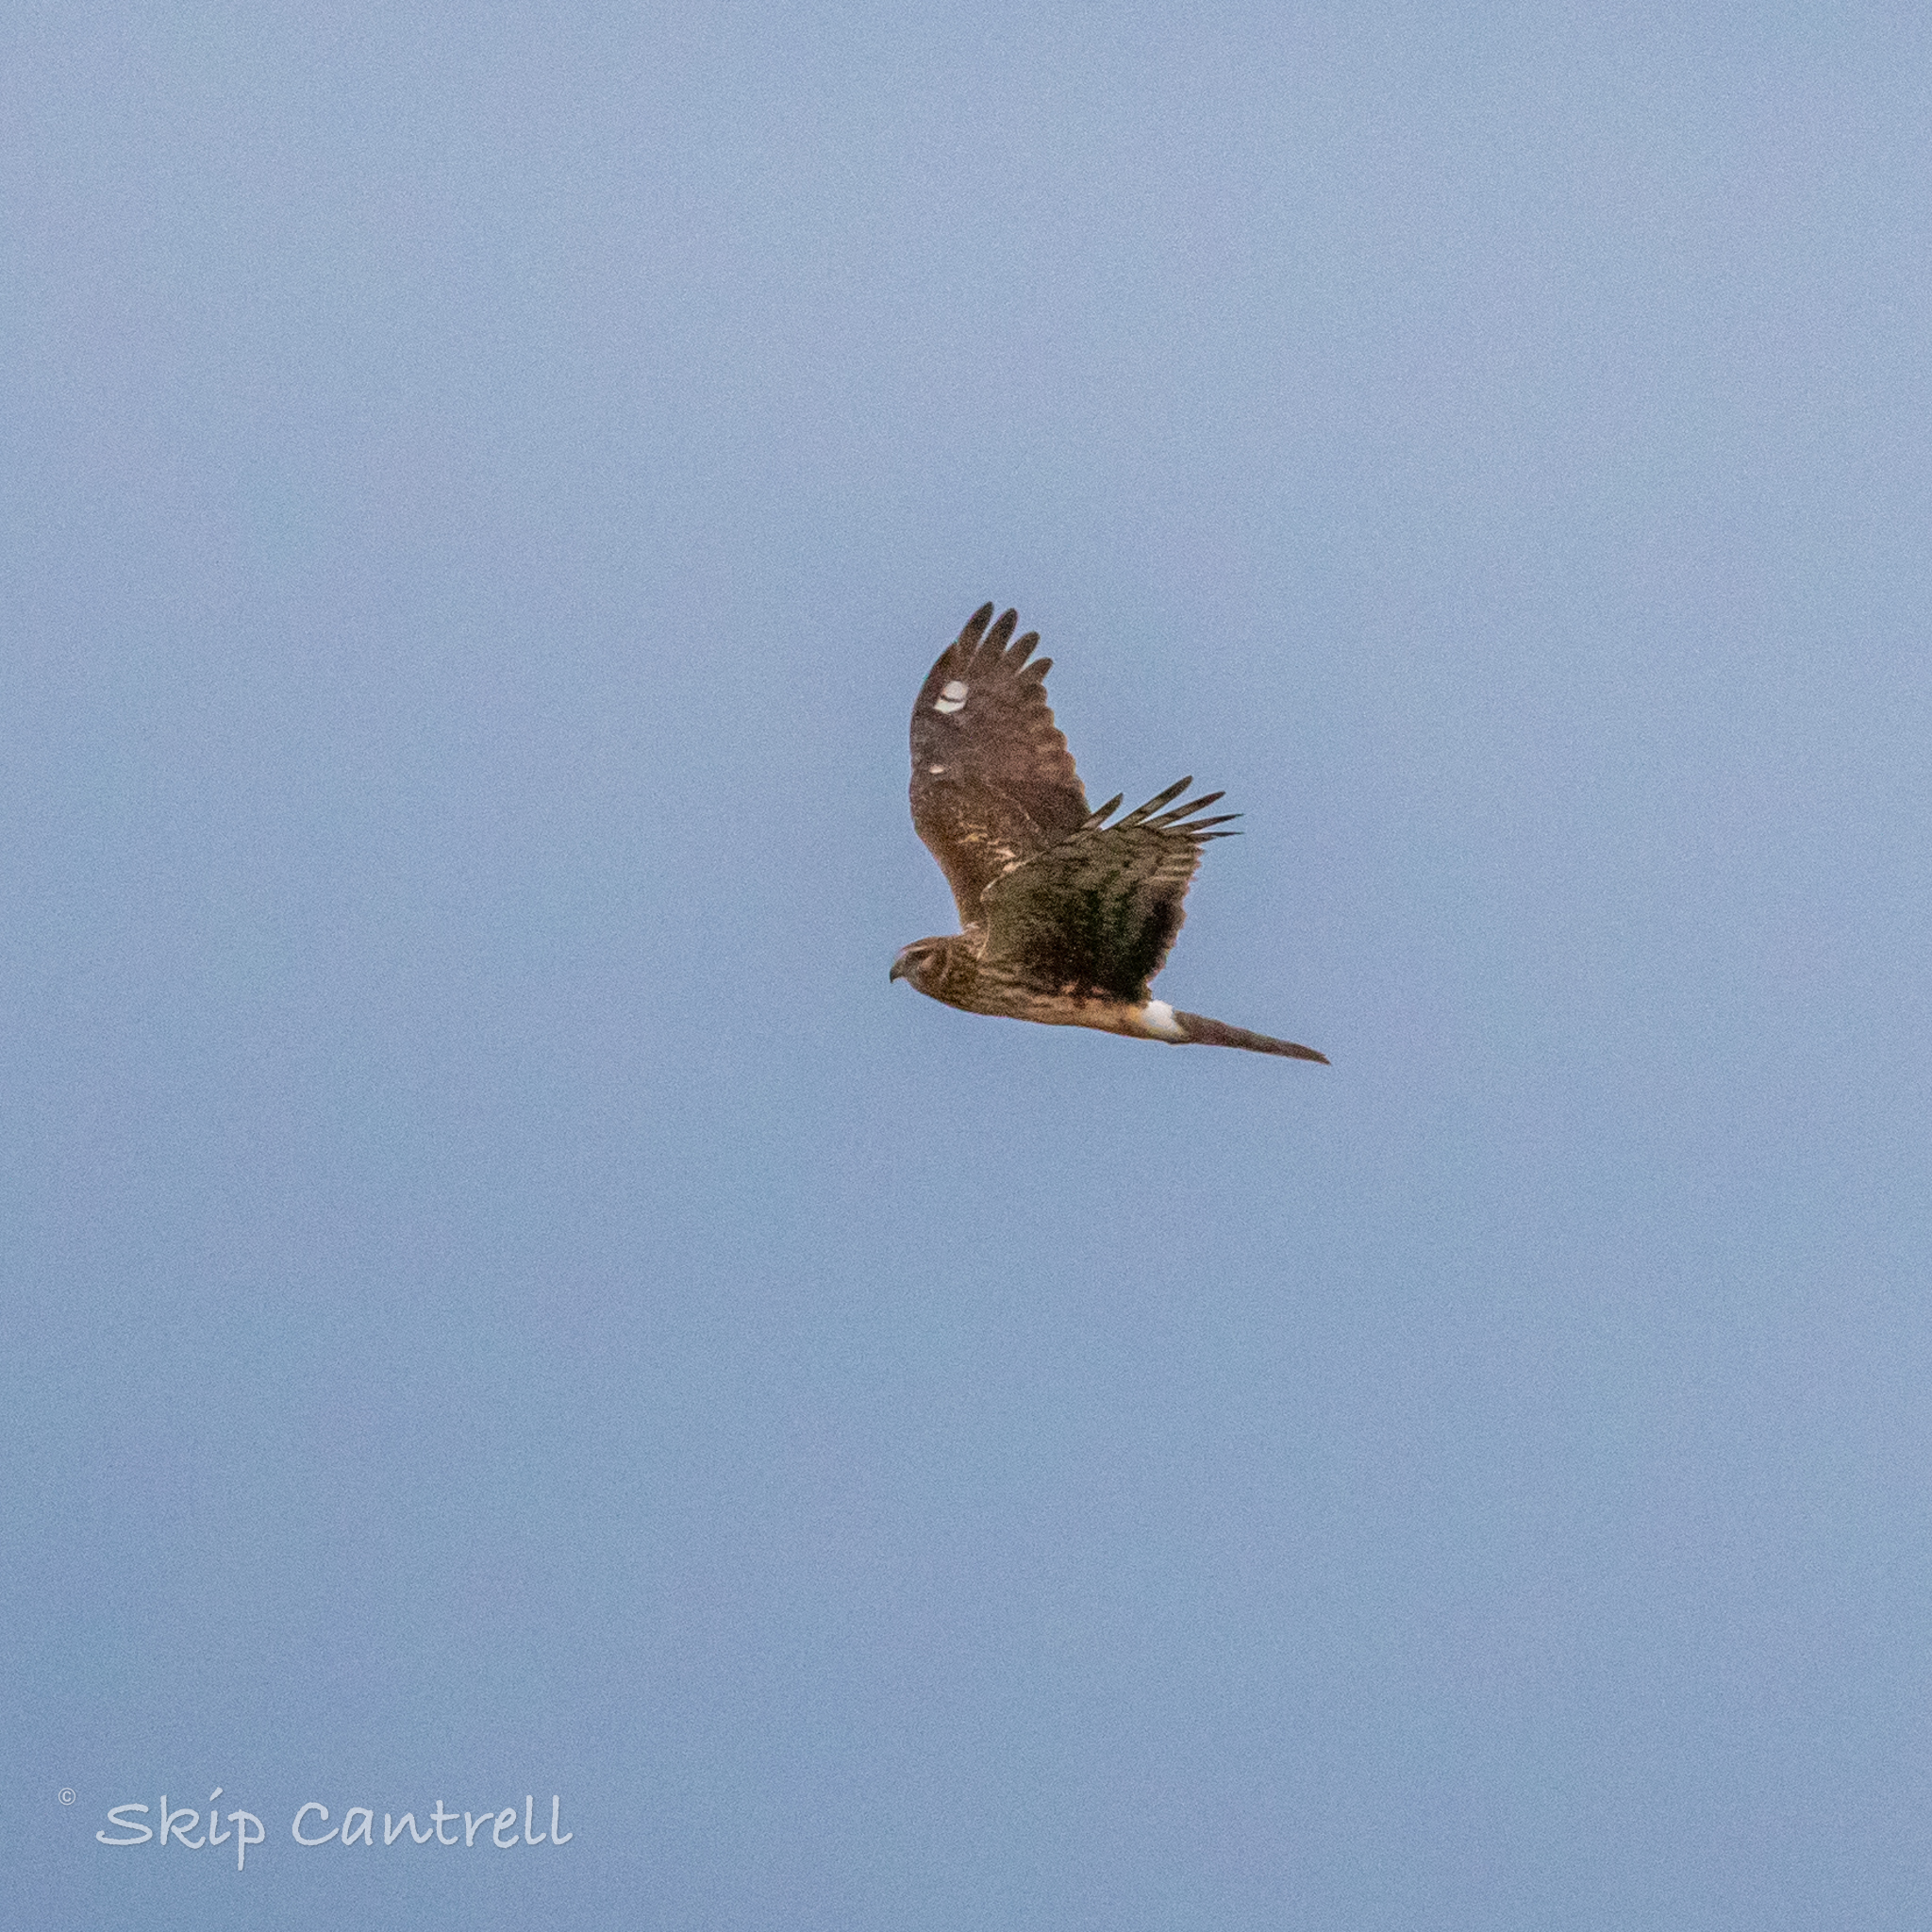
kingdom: Animalia
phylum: Chordata
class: Aves
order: Accipitriformes
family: Accipitridae
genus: Circus
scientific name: Circus cyaneus
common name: Hen harrier
